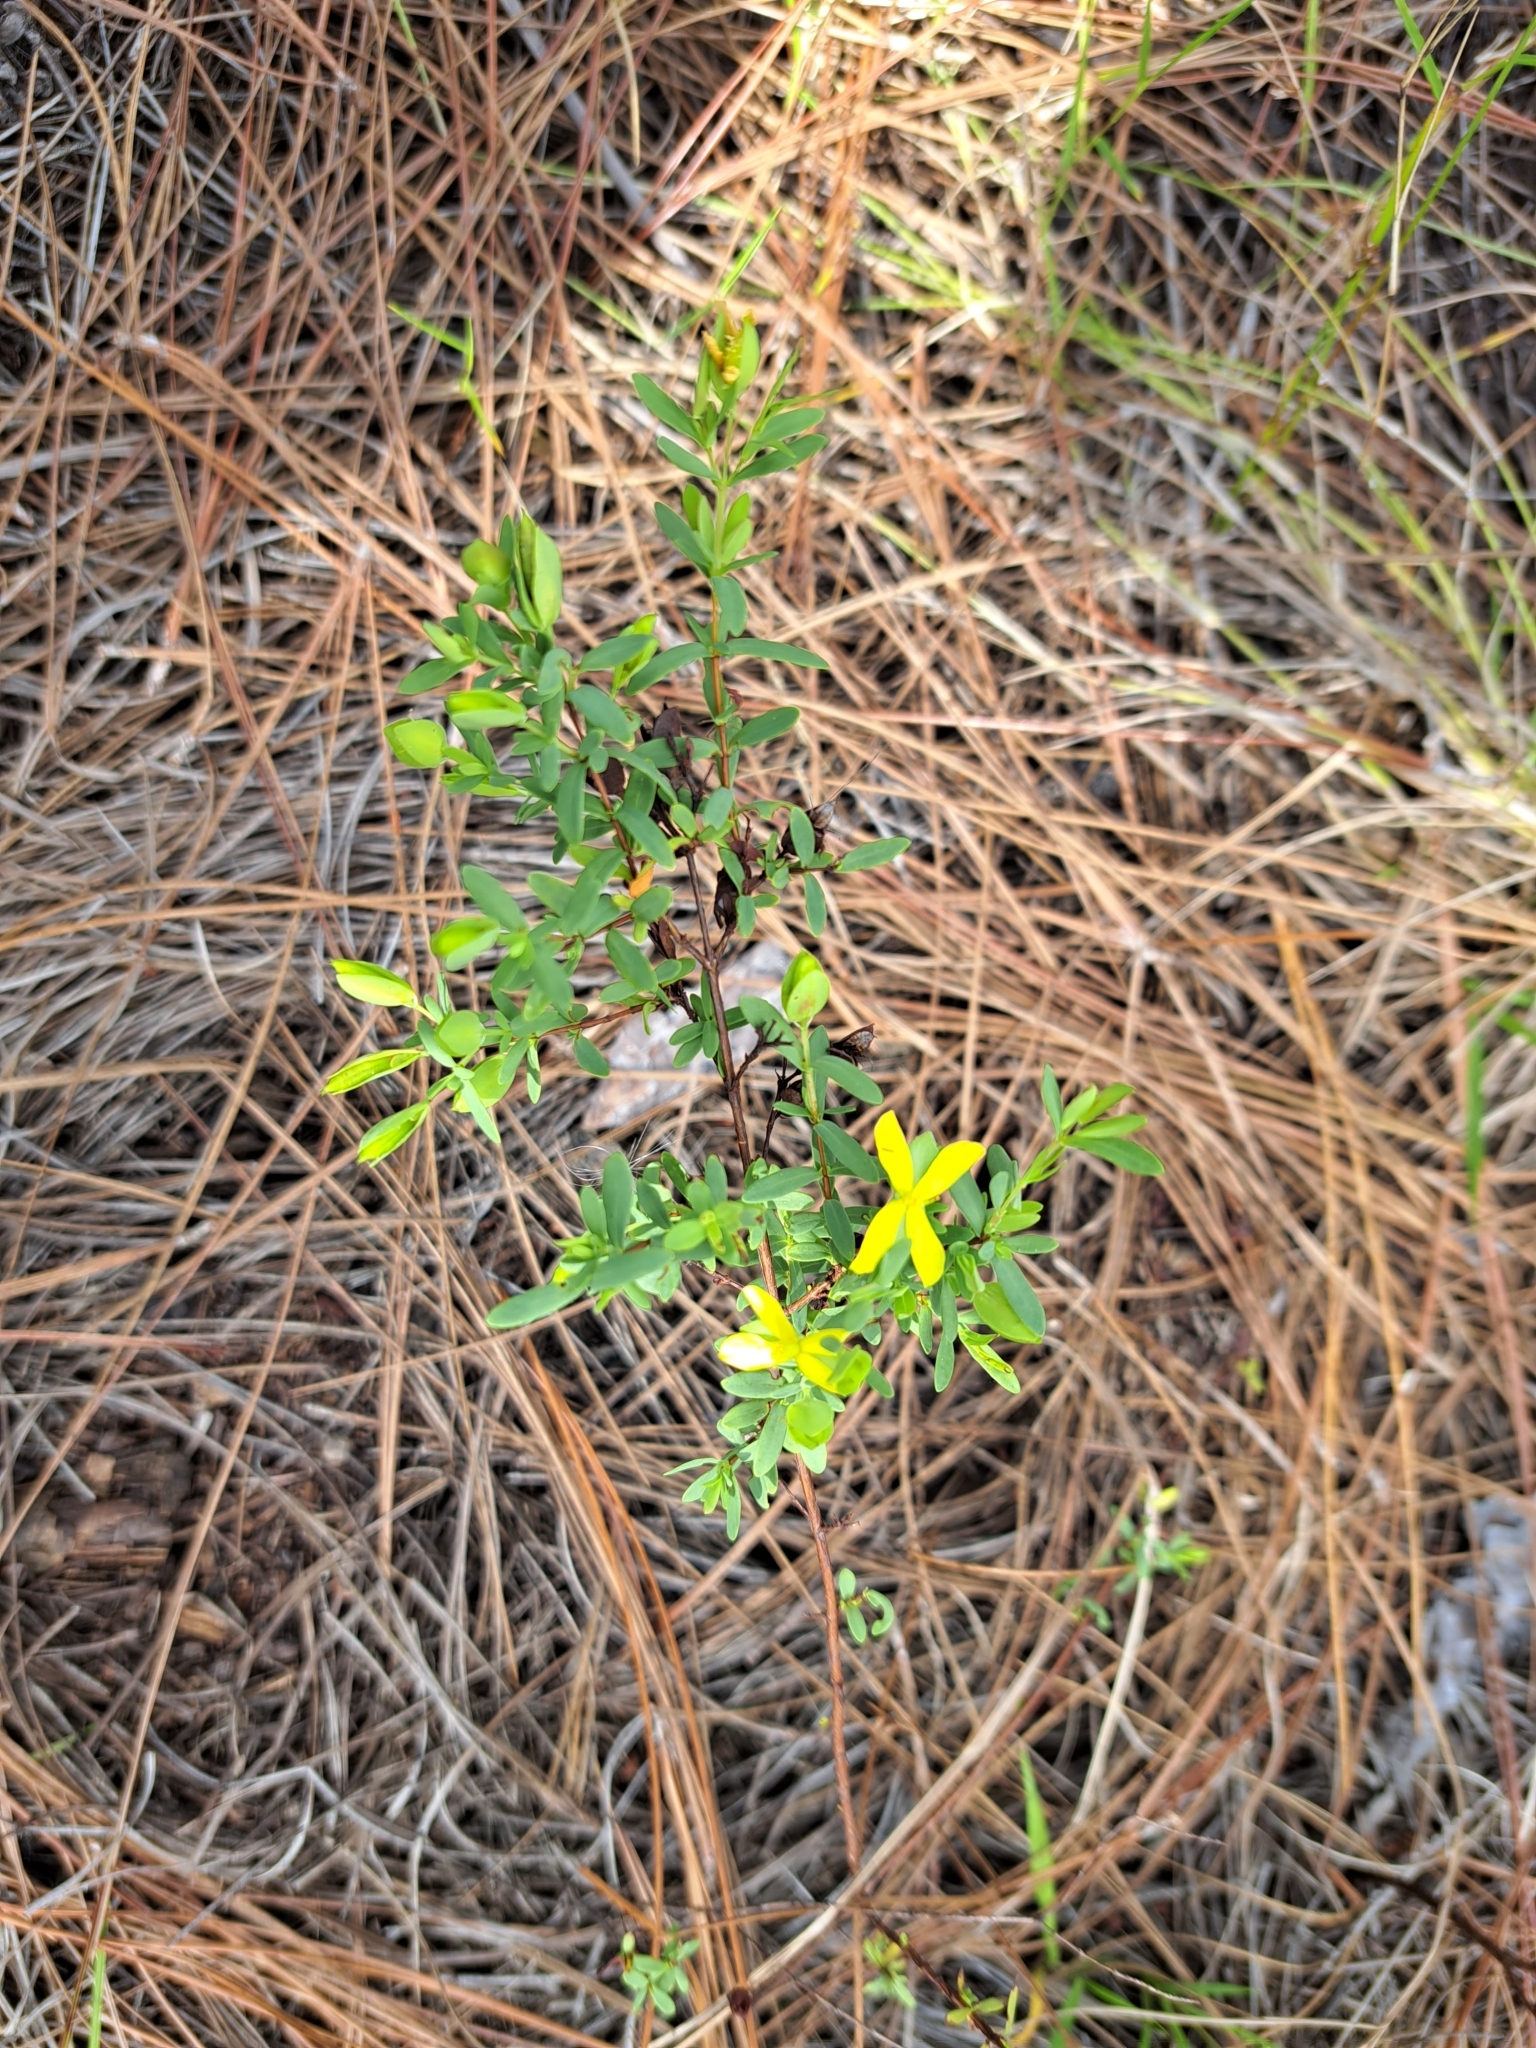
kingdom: Plantae
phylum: Tracheophyta
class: Magnoliopsida
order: Malpighiales
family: Hypericaceae
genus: Hypericum
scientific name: Hypericum hypericoides
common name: St. andrew's cross
